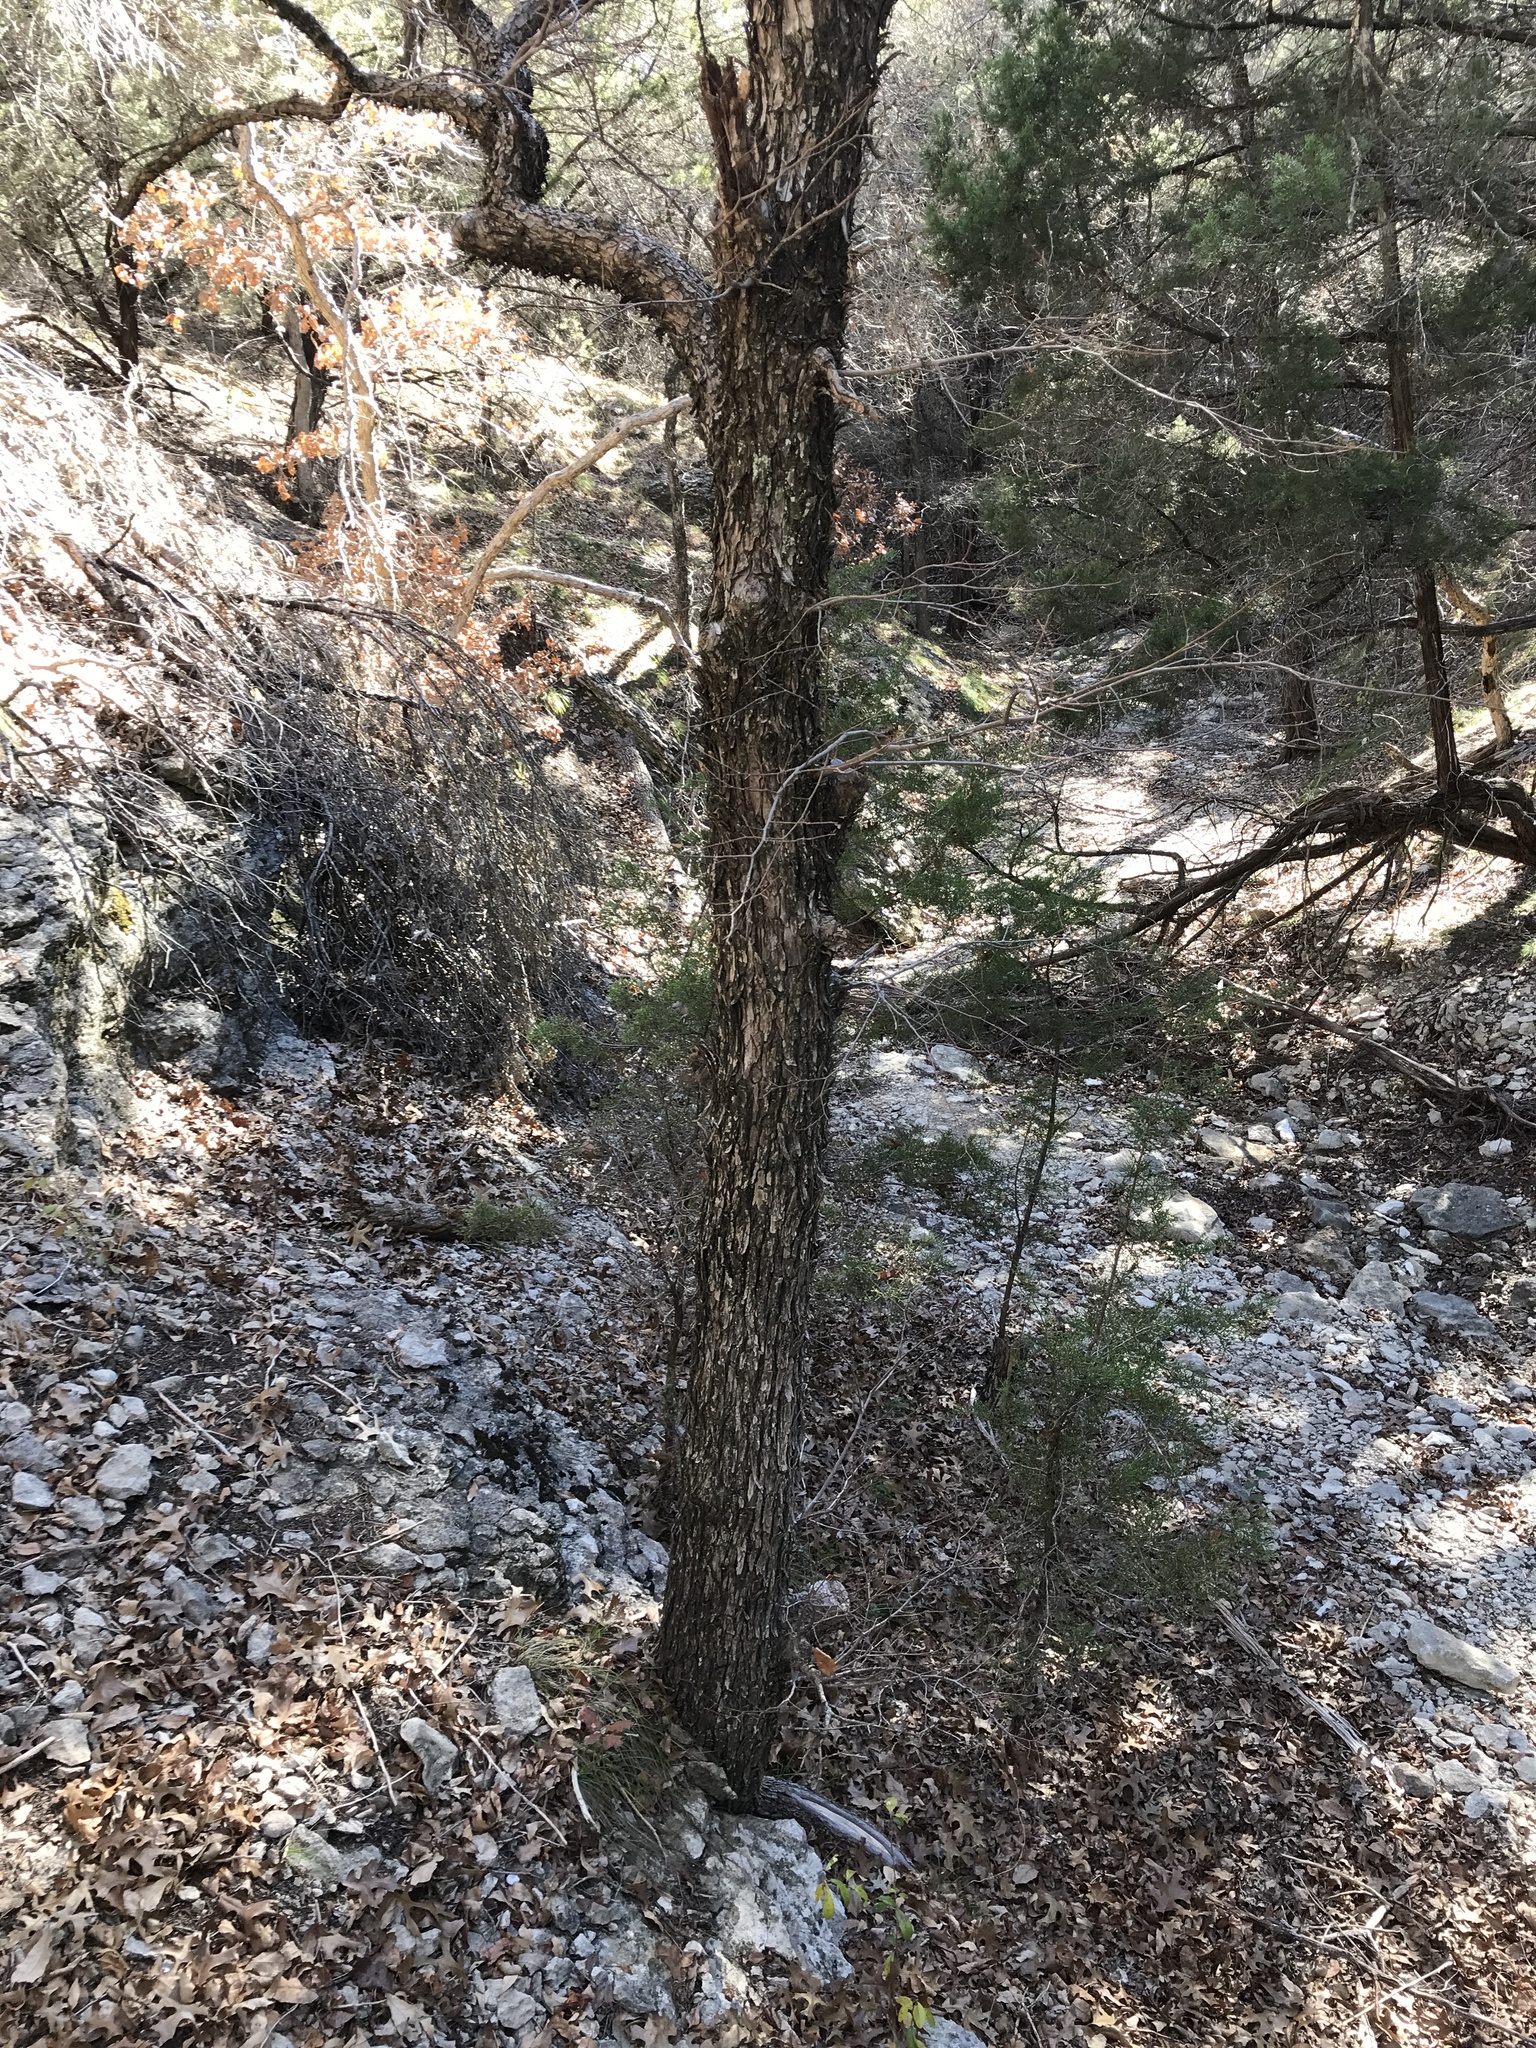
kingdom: Plantae
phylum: Tracheophyta
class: Magnoliopsida
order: Rosales
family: Ulmaceae
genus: Ulmus
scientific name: Ulmus crassifolia
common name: Basket elm
